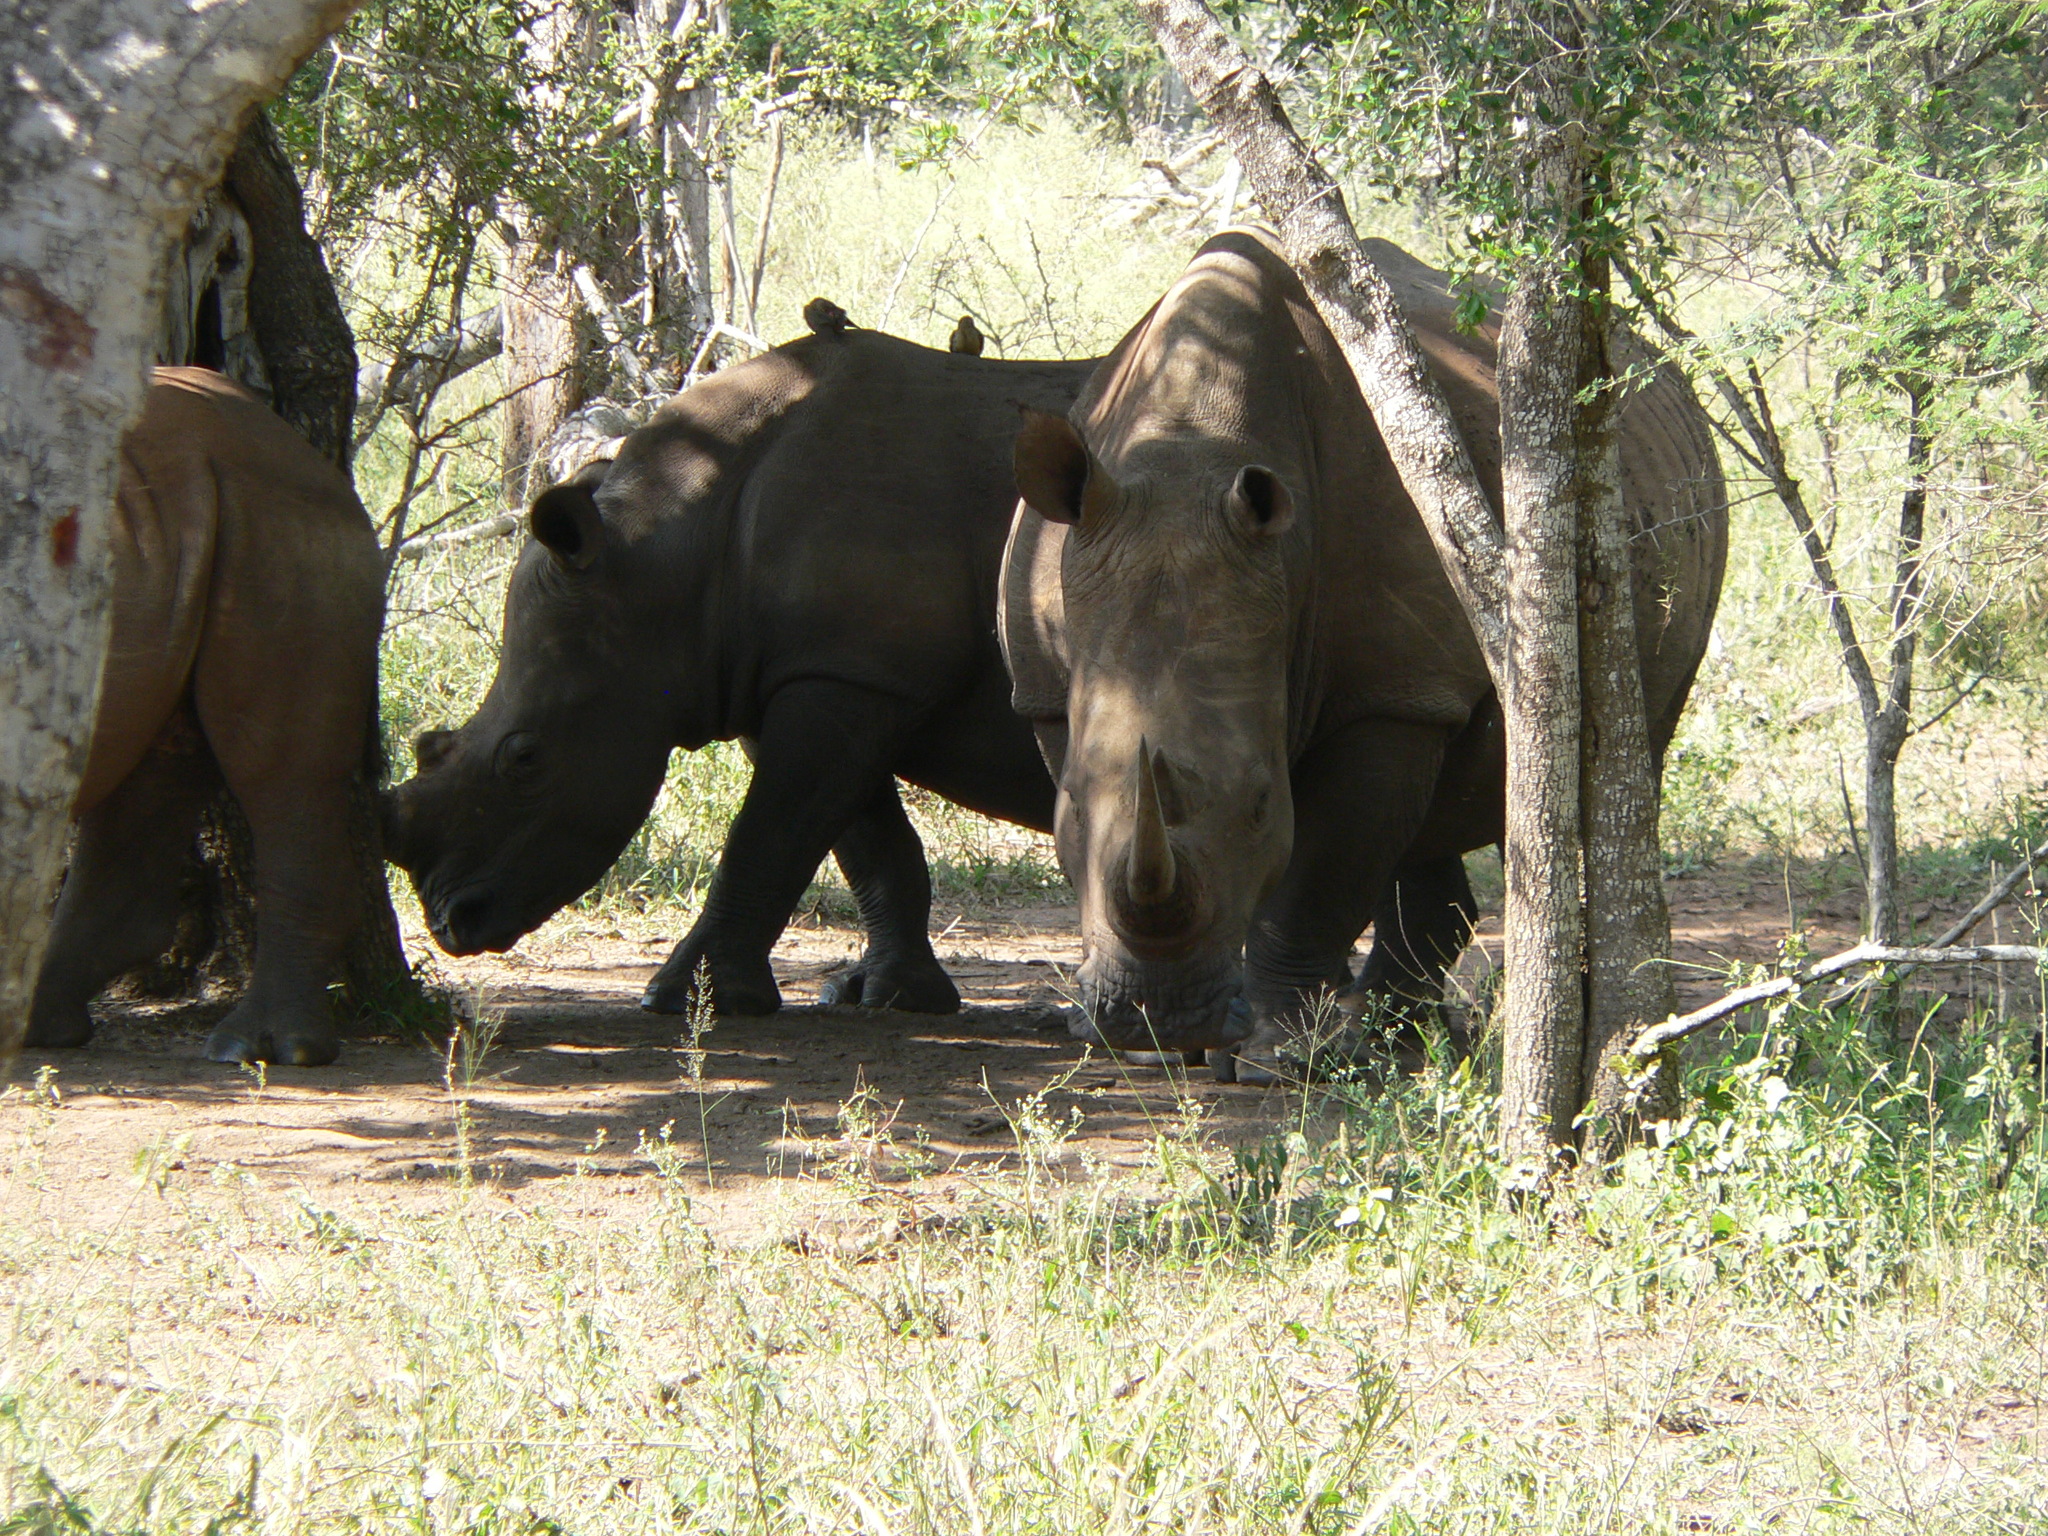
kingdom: Animalia
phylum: Chordata
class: Mammalia
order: Perissodactyla
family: Rhinocerotidae
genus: Ceratotherium
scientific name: Ceratotherium simum
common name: White rhinoceros
